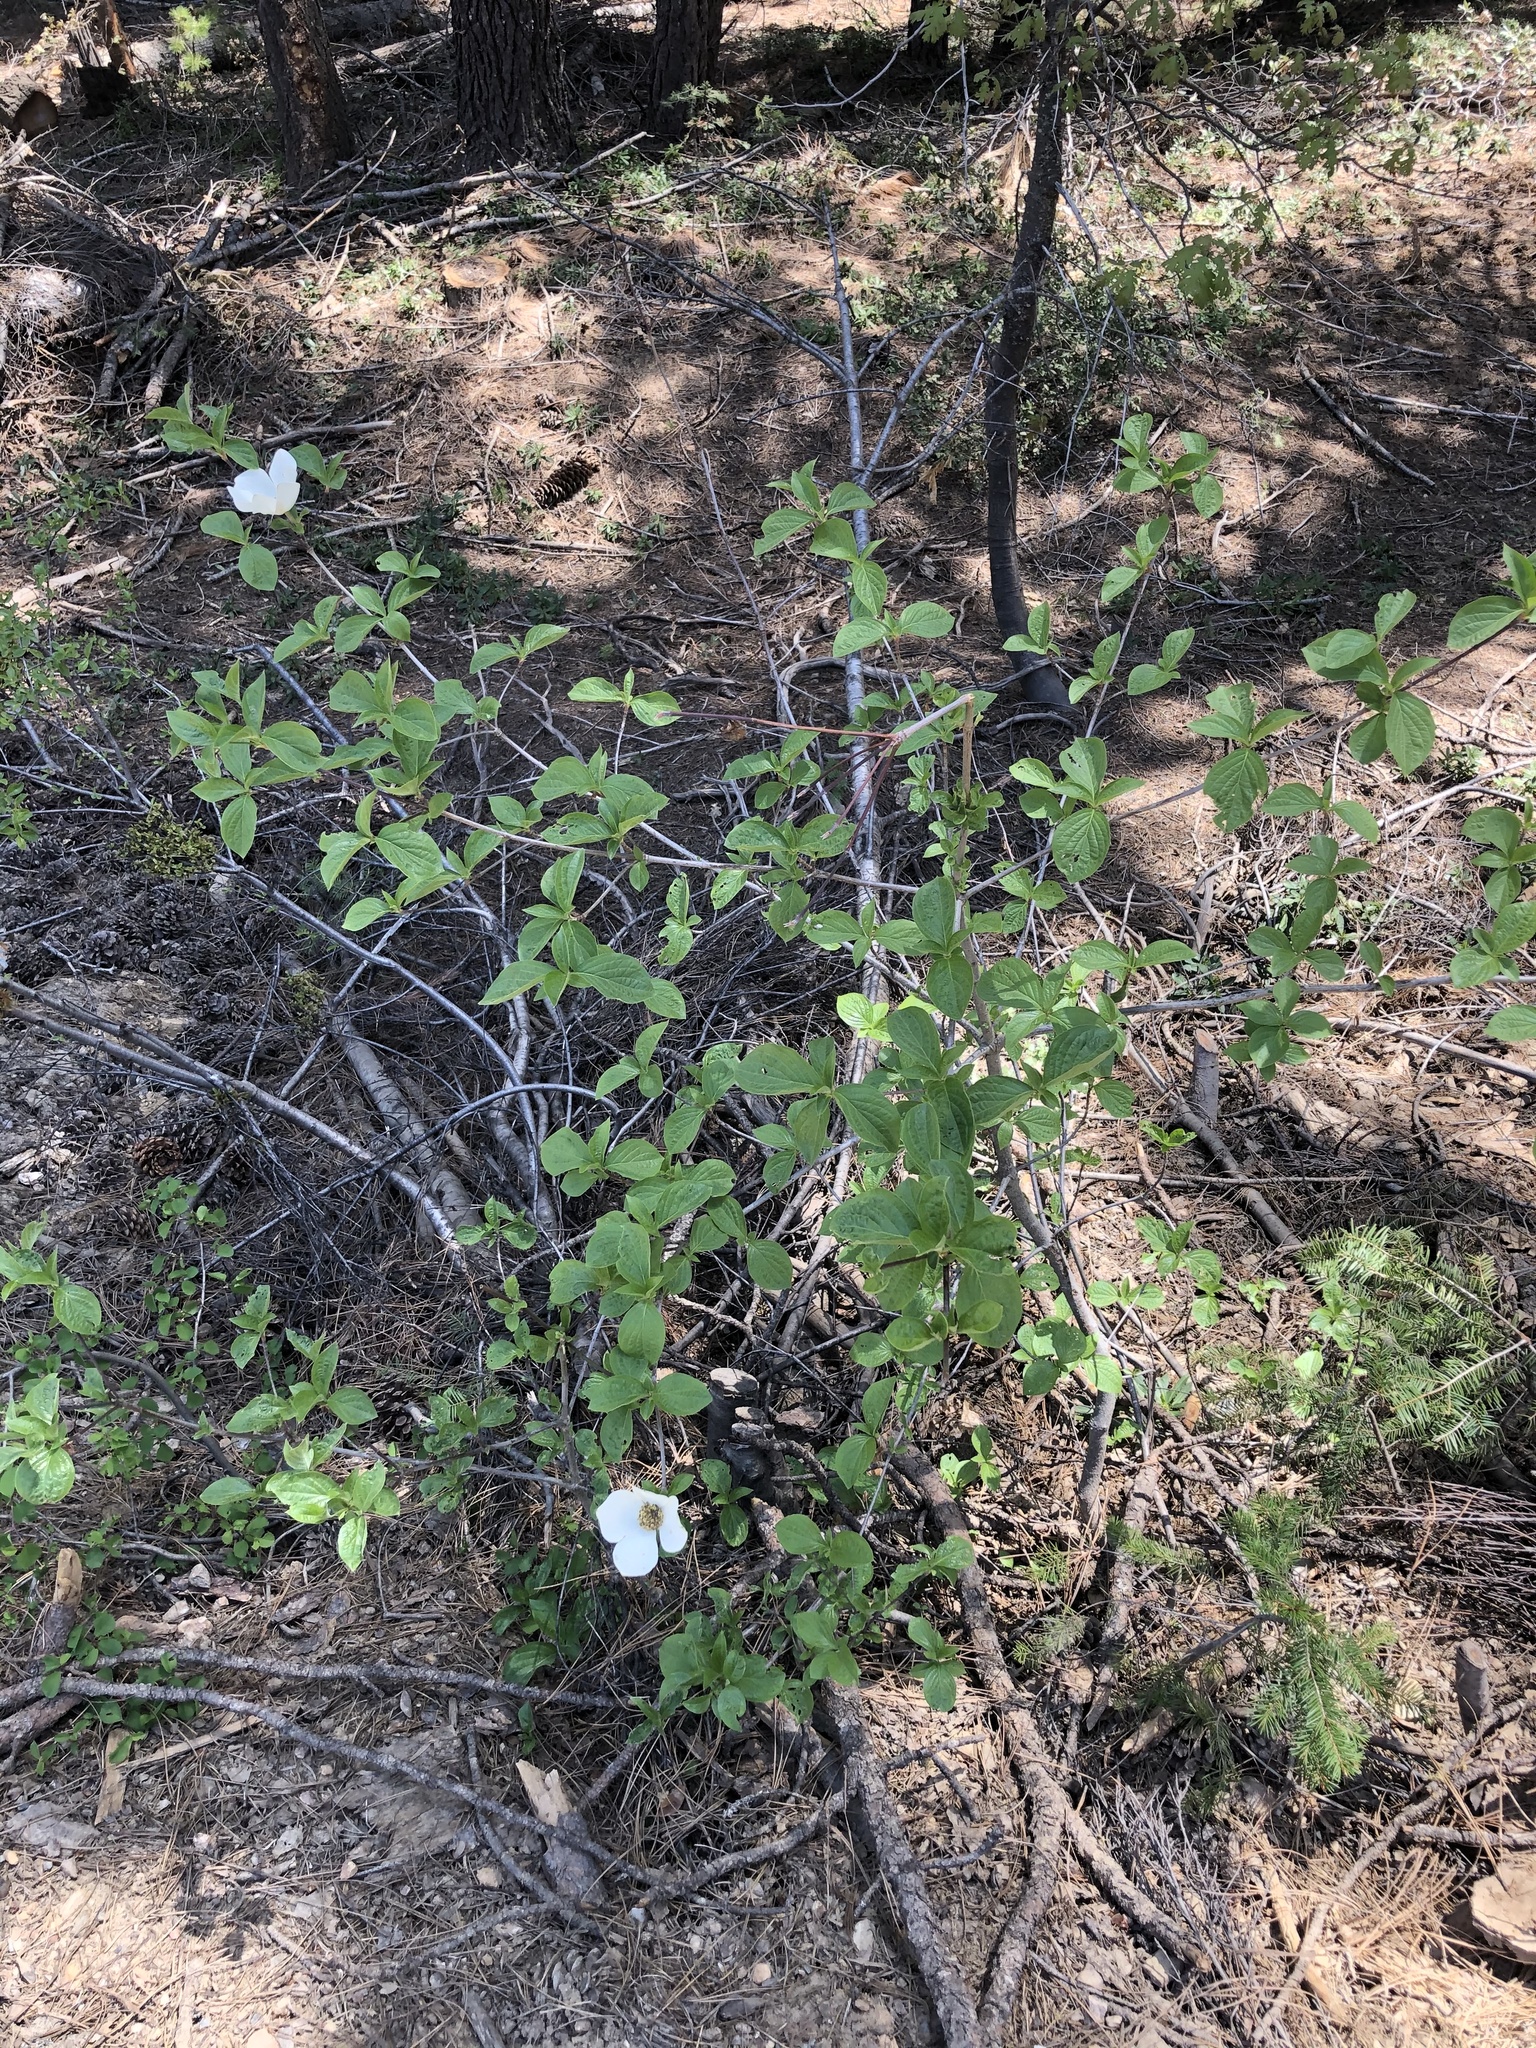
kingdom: Plantae
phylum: Tracheophyta
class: Magnoliopsida
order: Cornales
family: Cornaceae
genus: Cornus
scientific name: Cornus nuttallii
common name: Pacific dogwood
